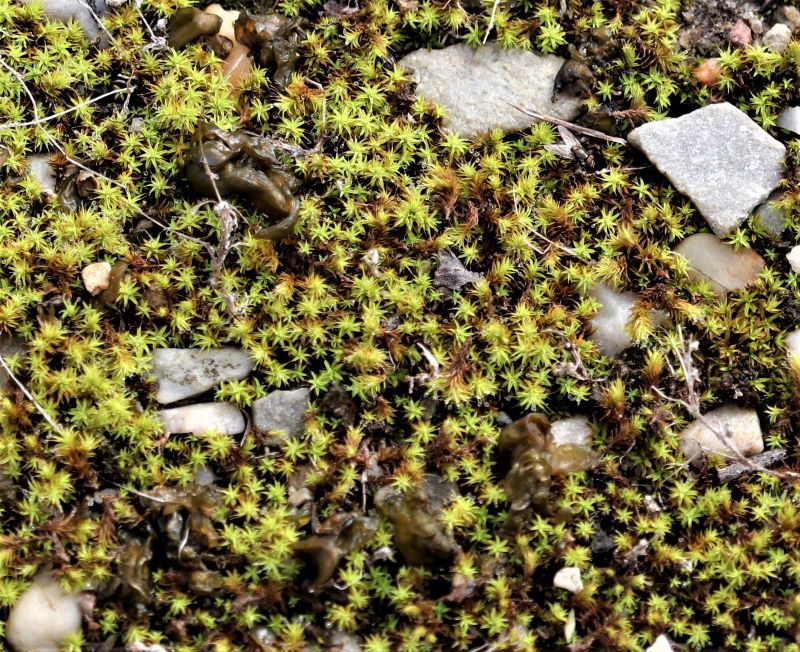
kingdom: Plantae
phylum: Bryophyta
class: Bryopsida
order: Pottiales
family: Pottiaceae
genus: Pseudocrossidium
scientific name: Pseudocrossidium crinitum
